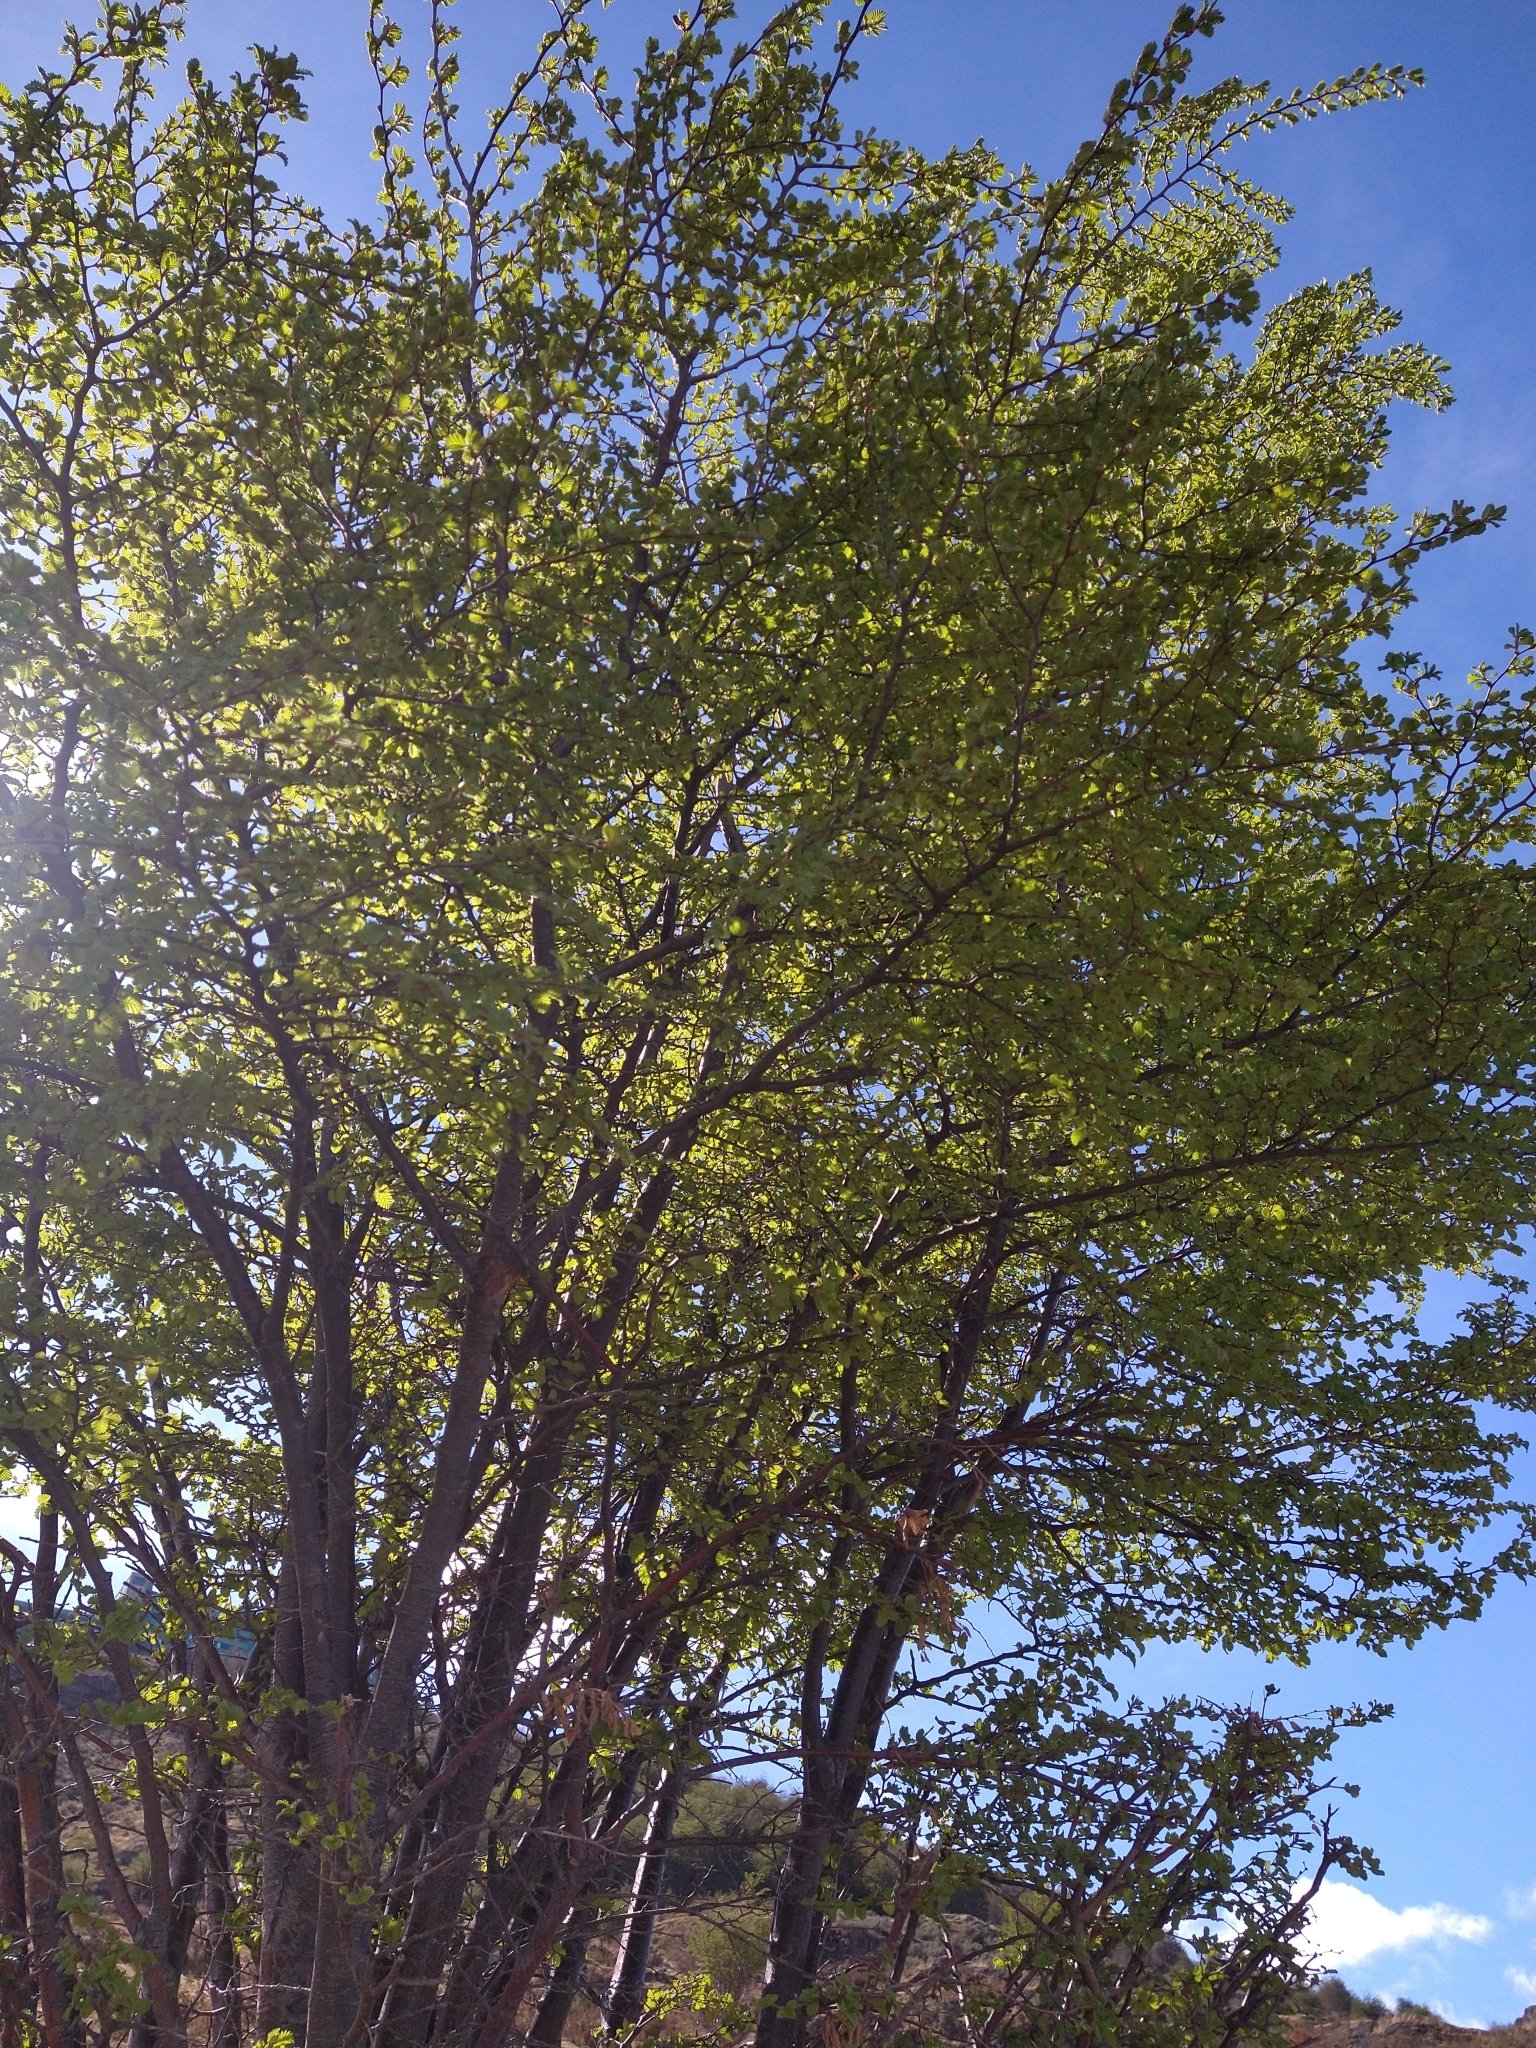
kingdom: Plantae
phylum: Tracheophyta
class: Magnoliopsida
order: Fagales
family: Nothofagaceae
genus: Nothofagus
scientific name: Nothofagus pumilio
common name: Lenga beech
